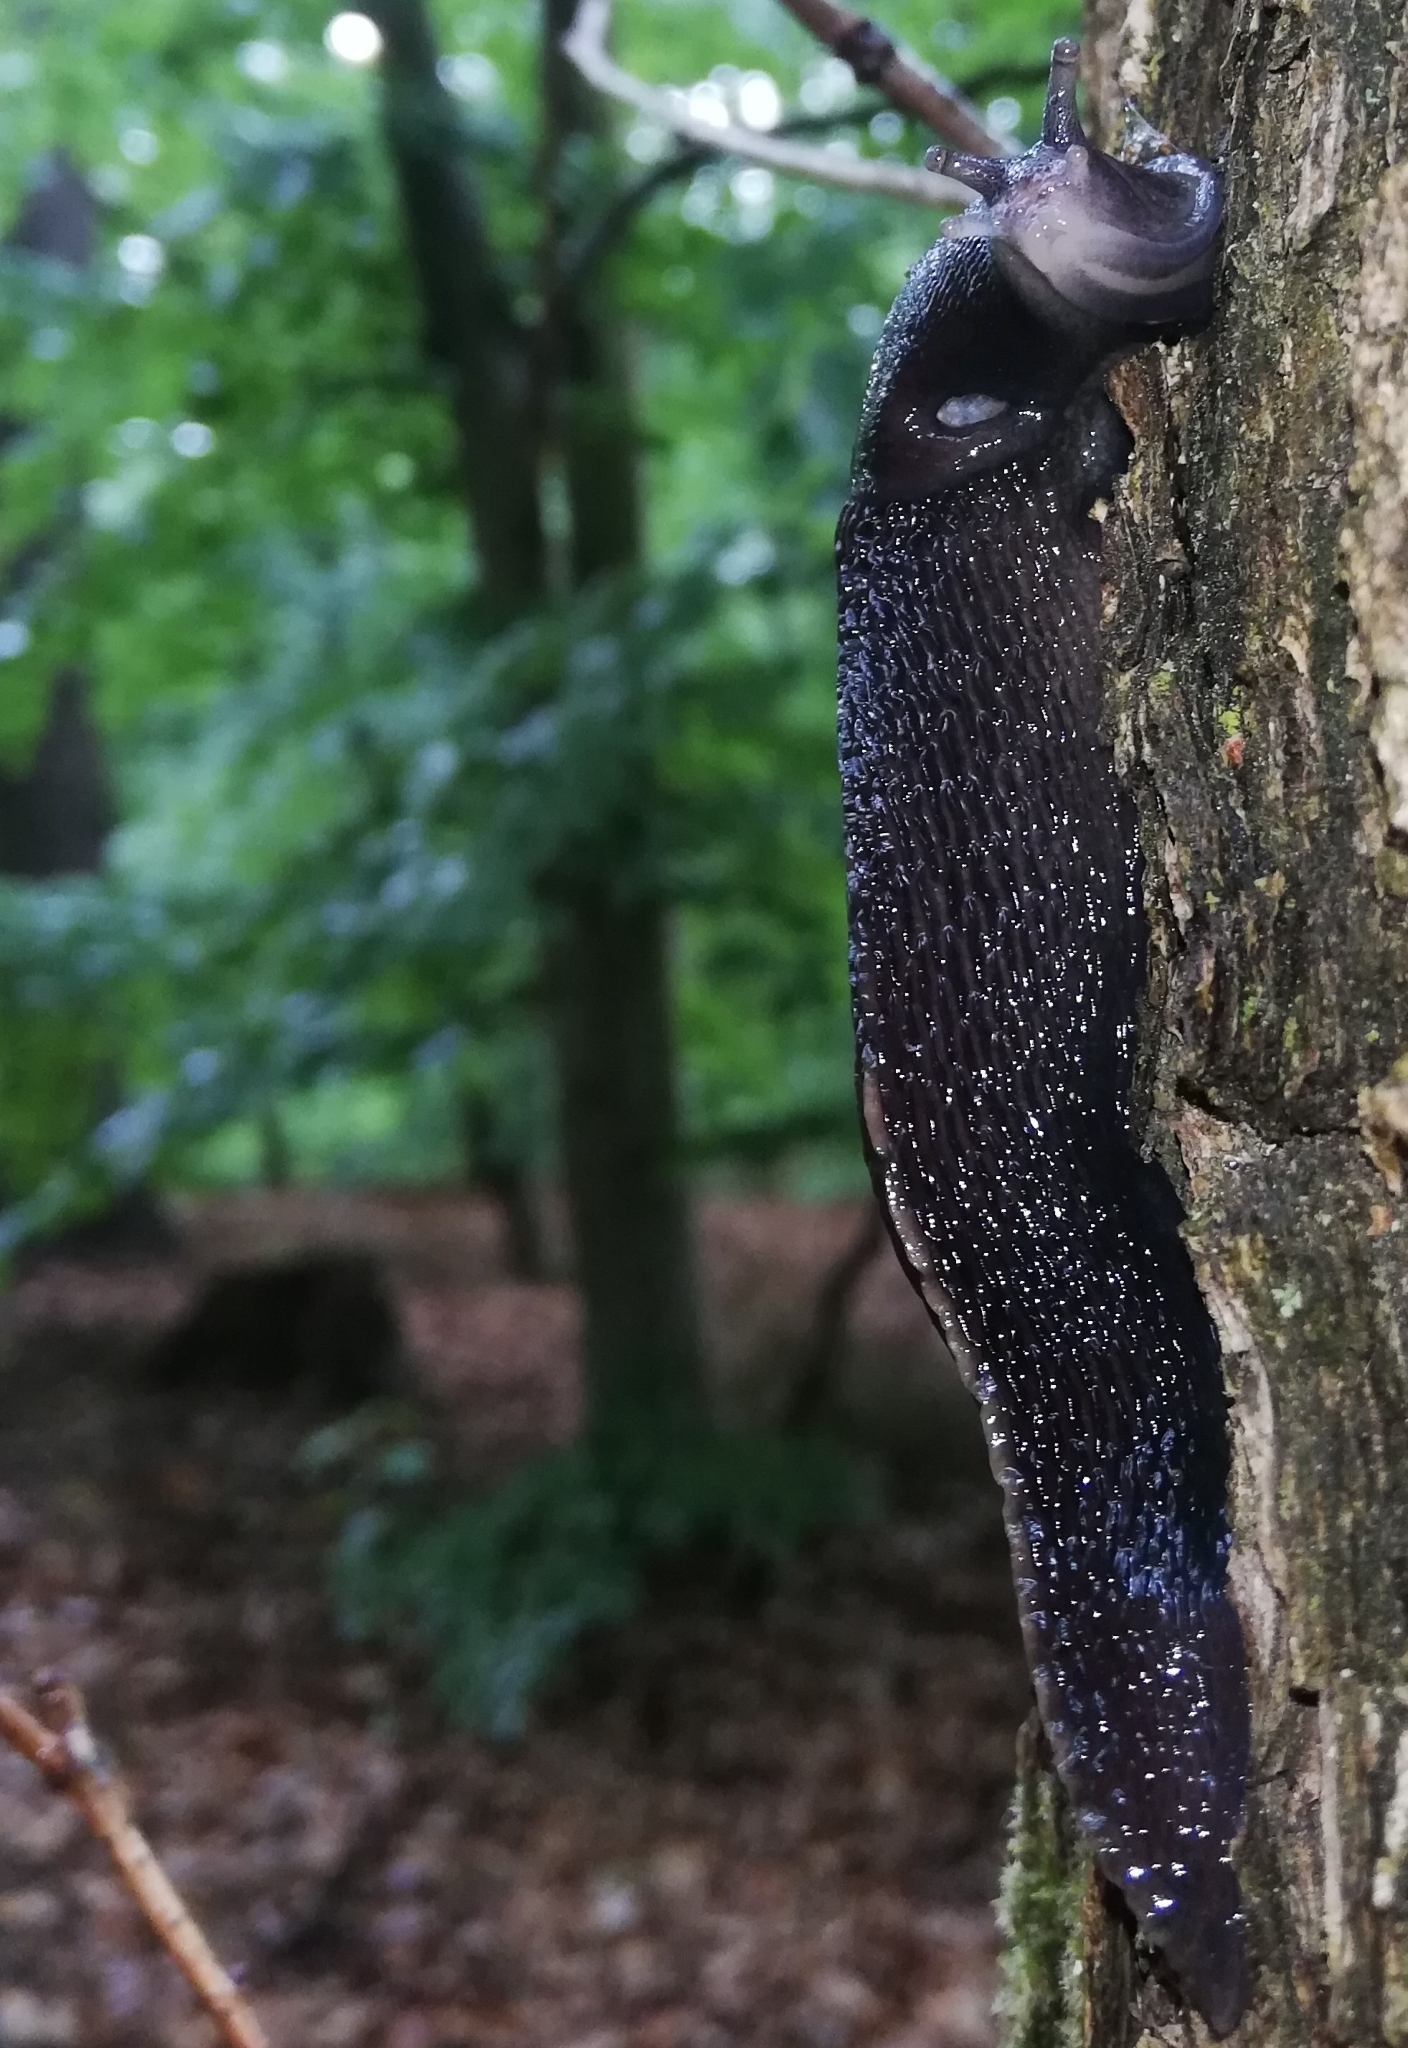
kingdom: Animalia
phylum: Mollusca
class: Gastropoda
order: Stylommatophora
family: Limacidae
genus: Limax
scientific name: Limax cinereoniger
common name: Ash-black slug
